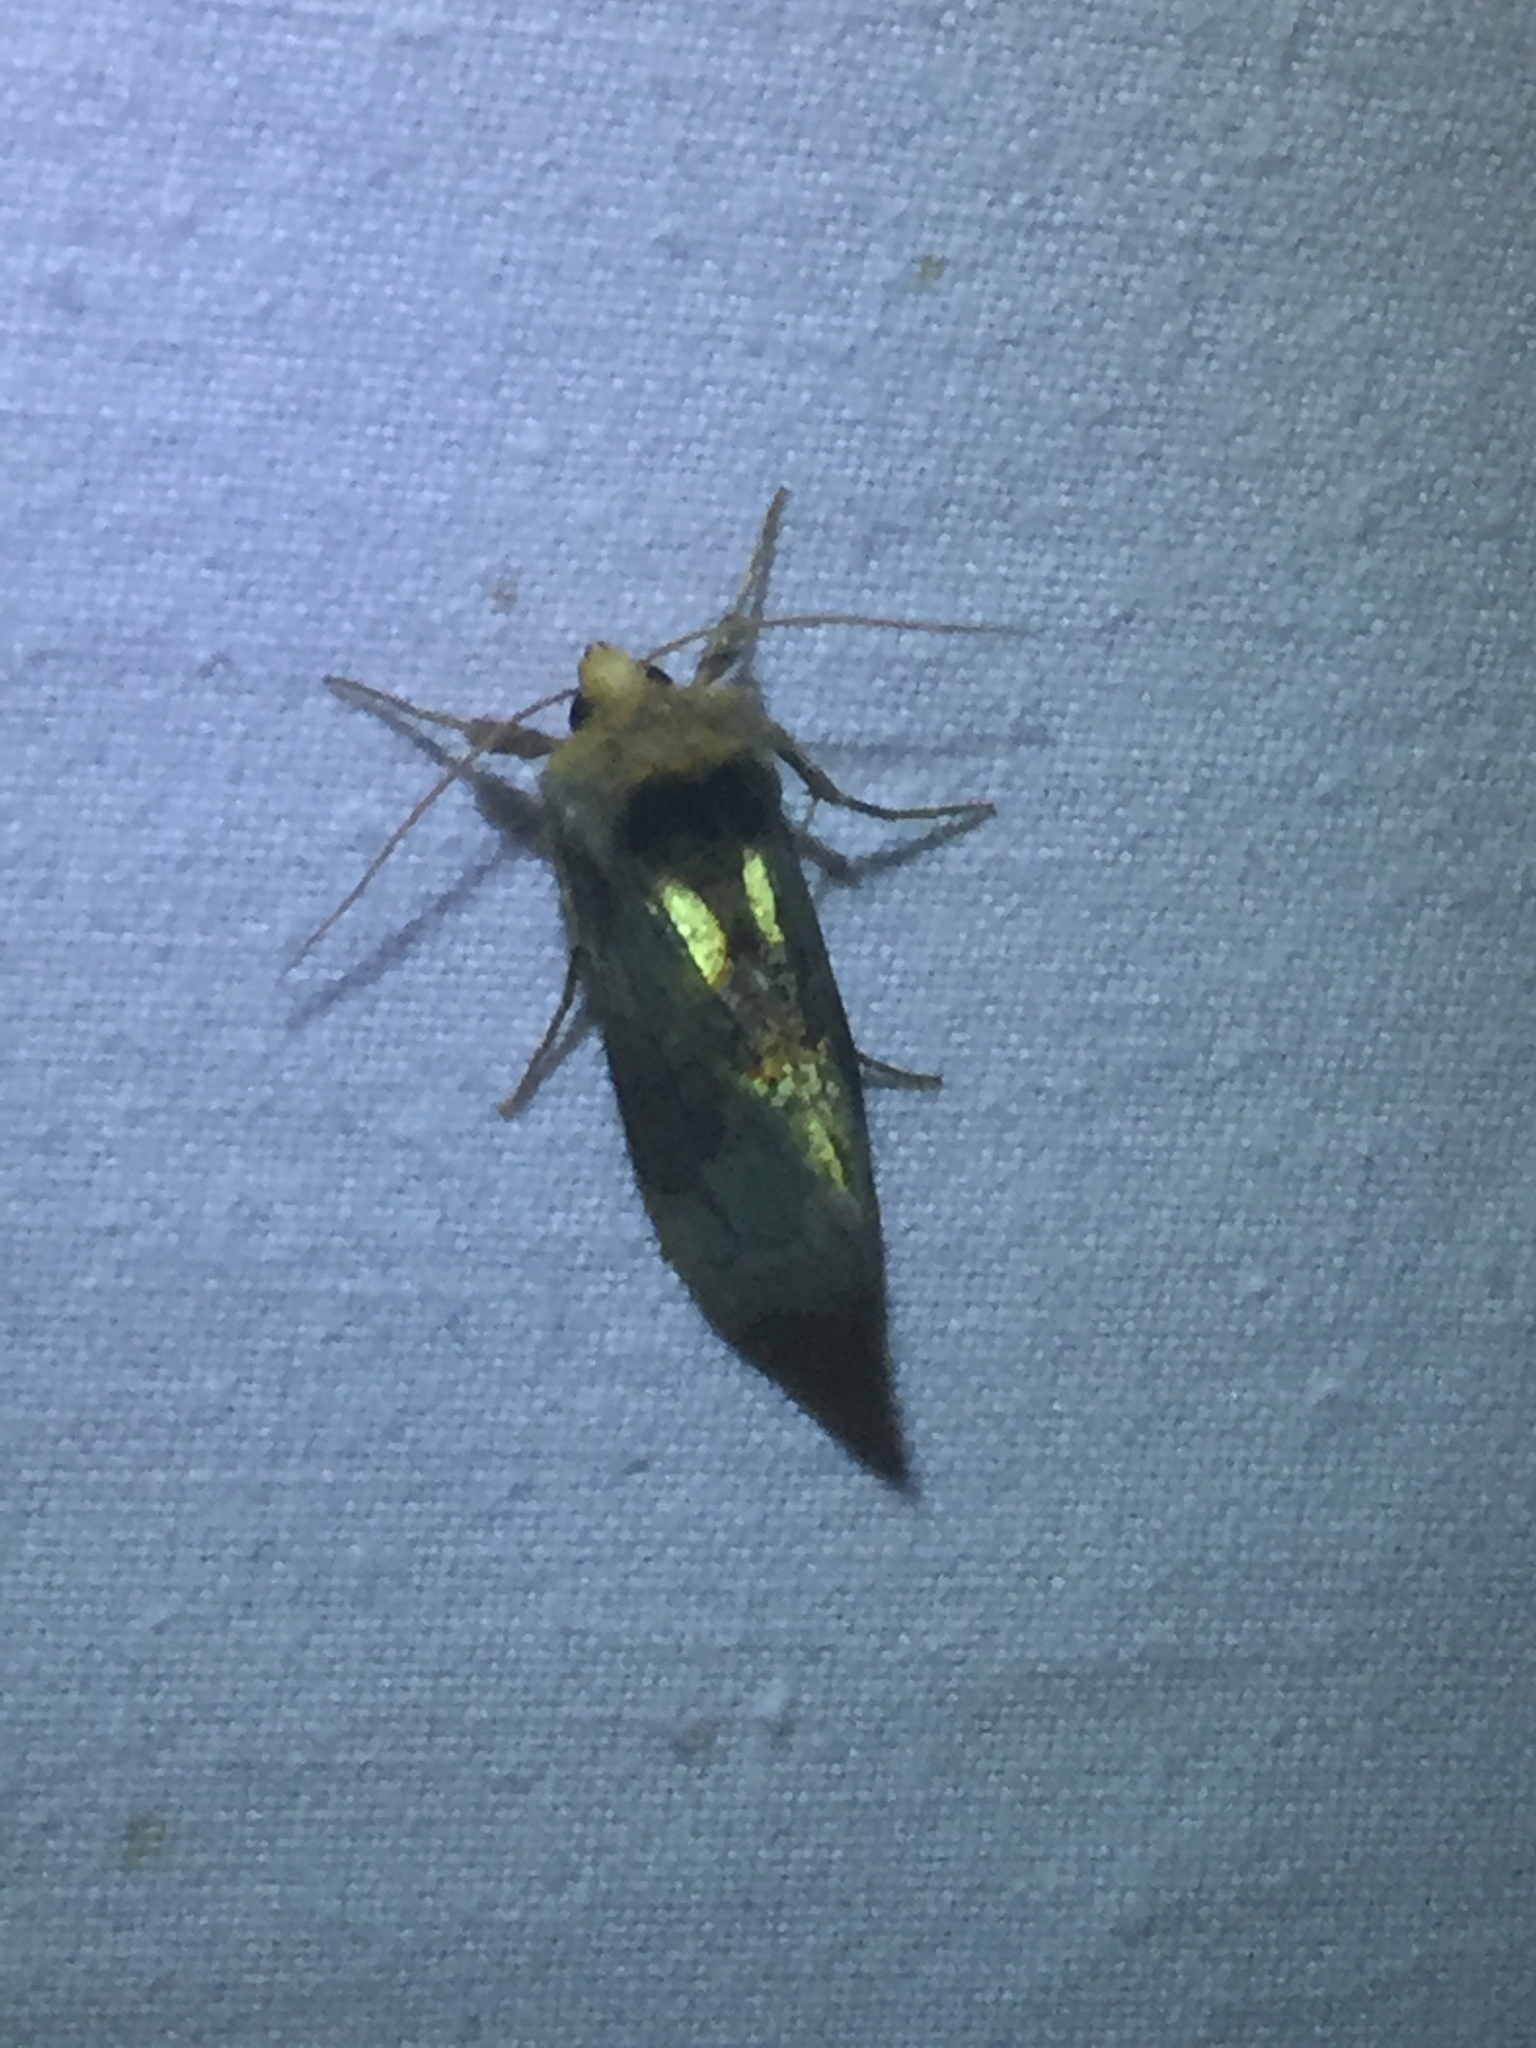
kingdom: Animalia
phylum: Arthropoda
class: Insecta
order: Lepidoptera
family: Noctuidae
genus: Diachrysia
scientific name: Diachrysia chrysitis
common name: Burnished brass
